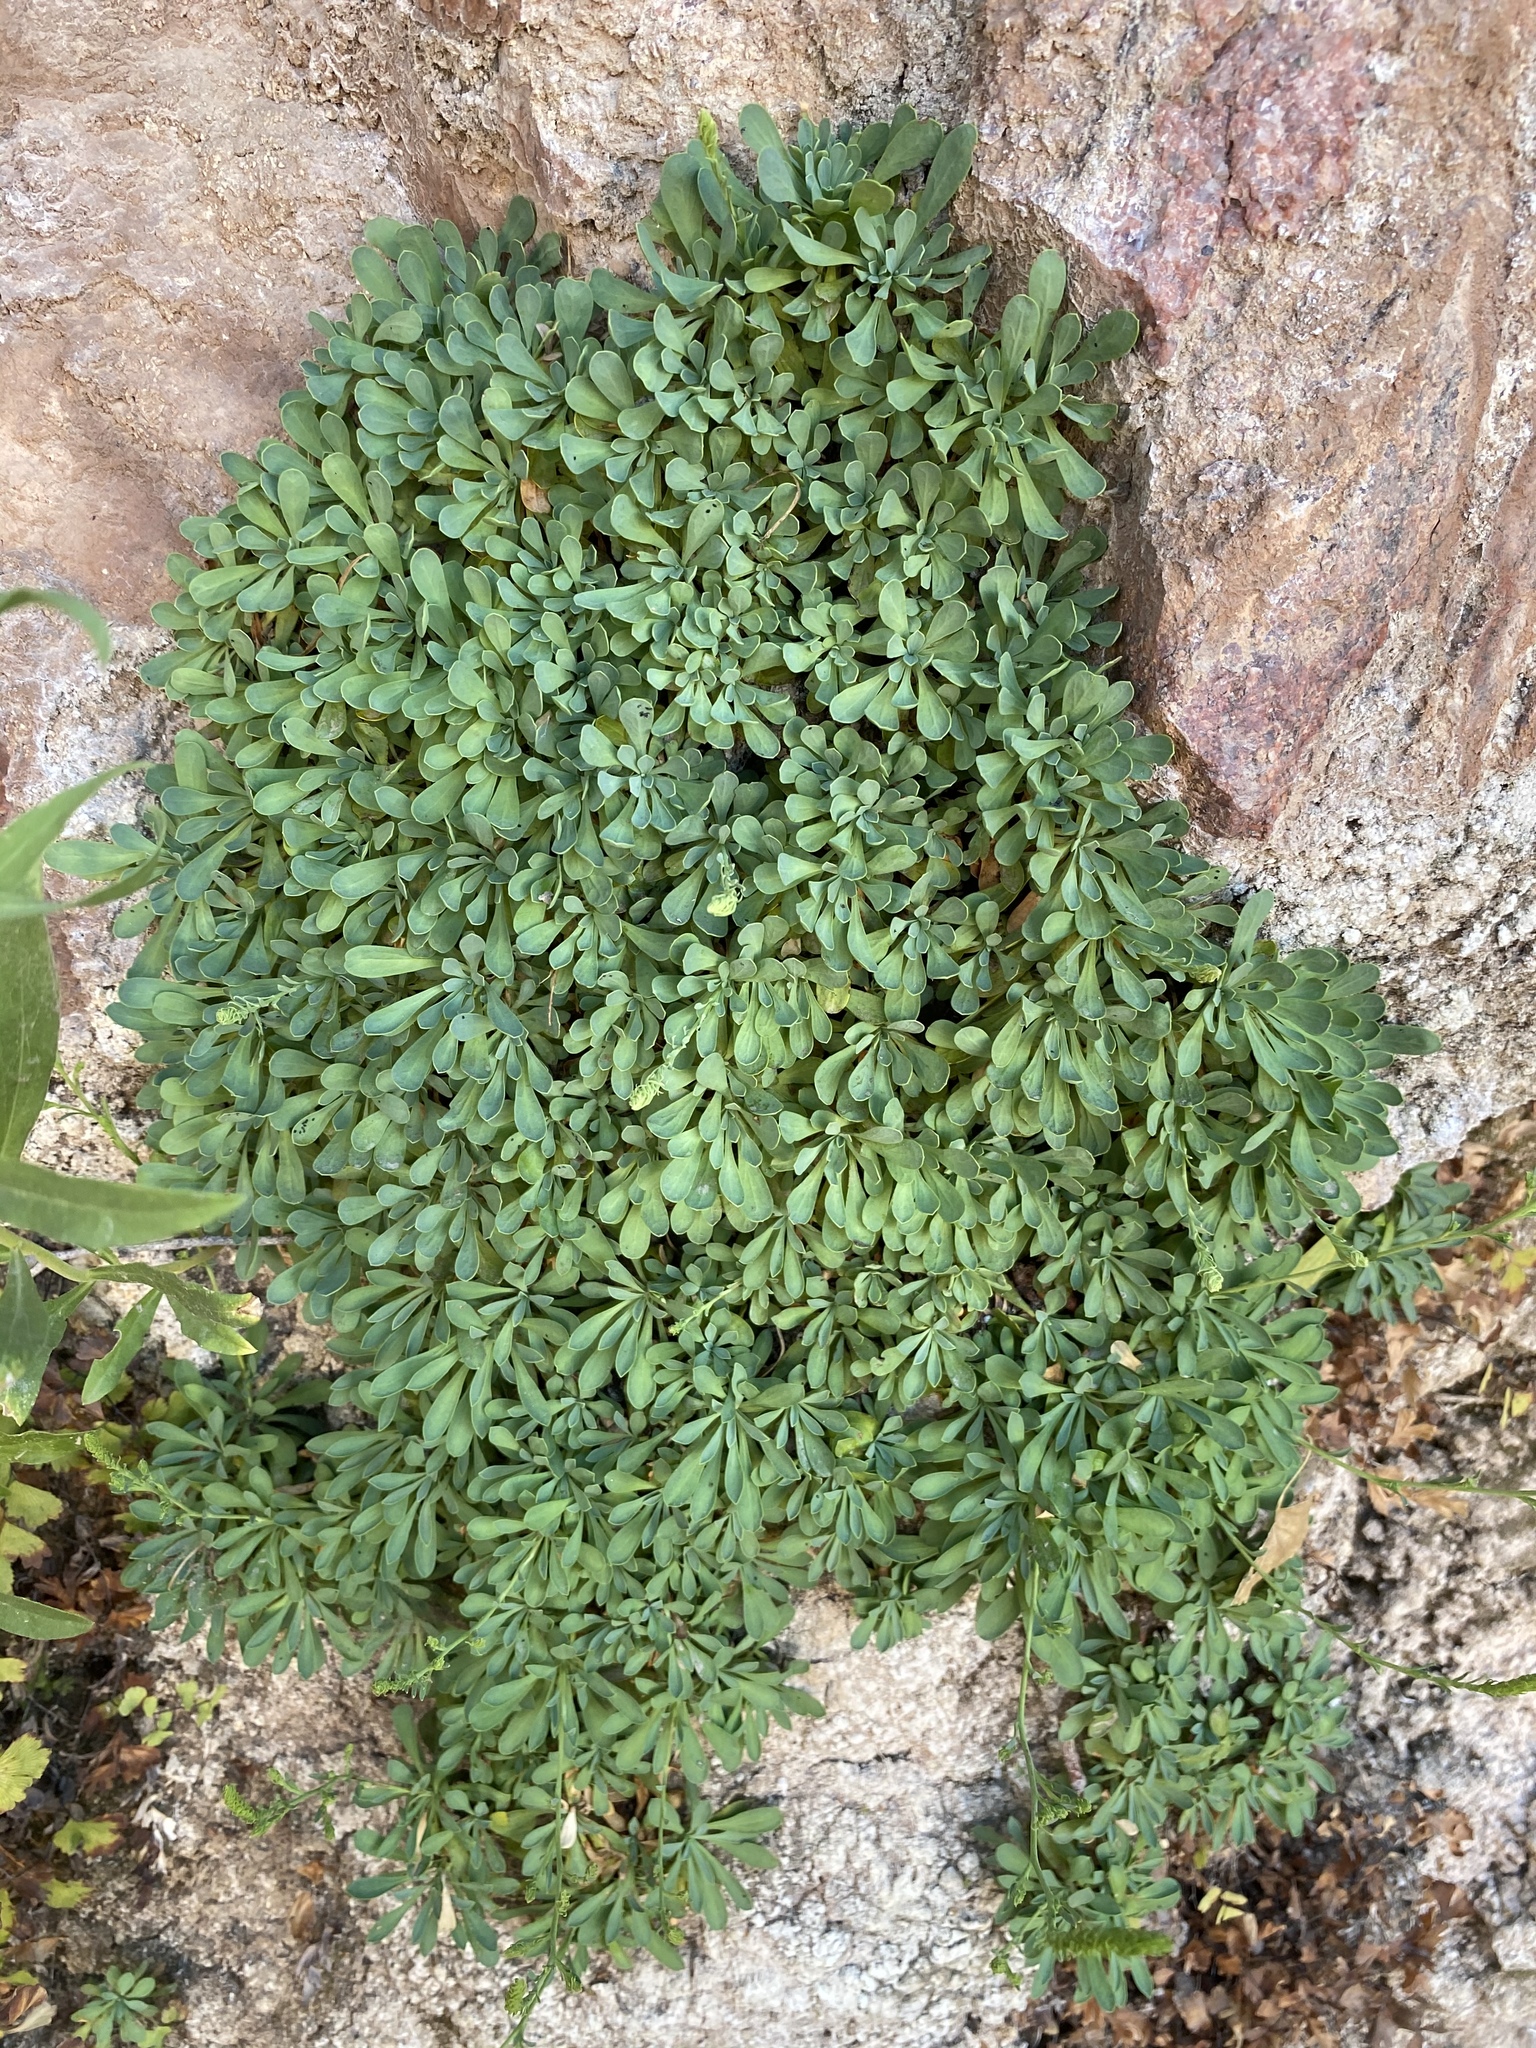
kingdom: Plantae
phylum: Tracheophyta
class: Magnoliopsida
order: Rosales
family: Rosaceae
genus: Petrophytum
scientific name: Petrophytum caespitosum
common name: Mat rockspirea
